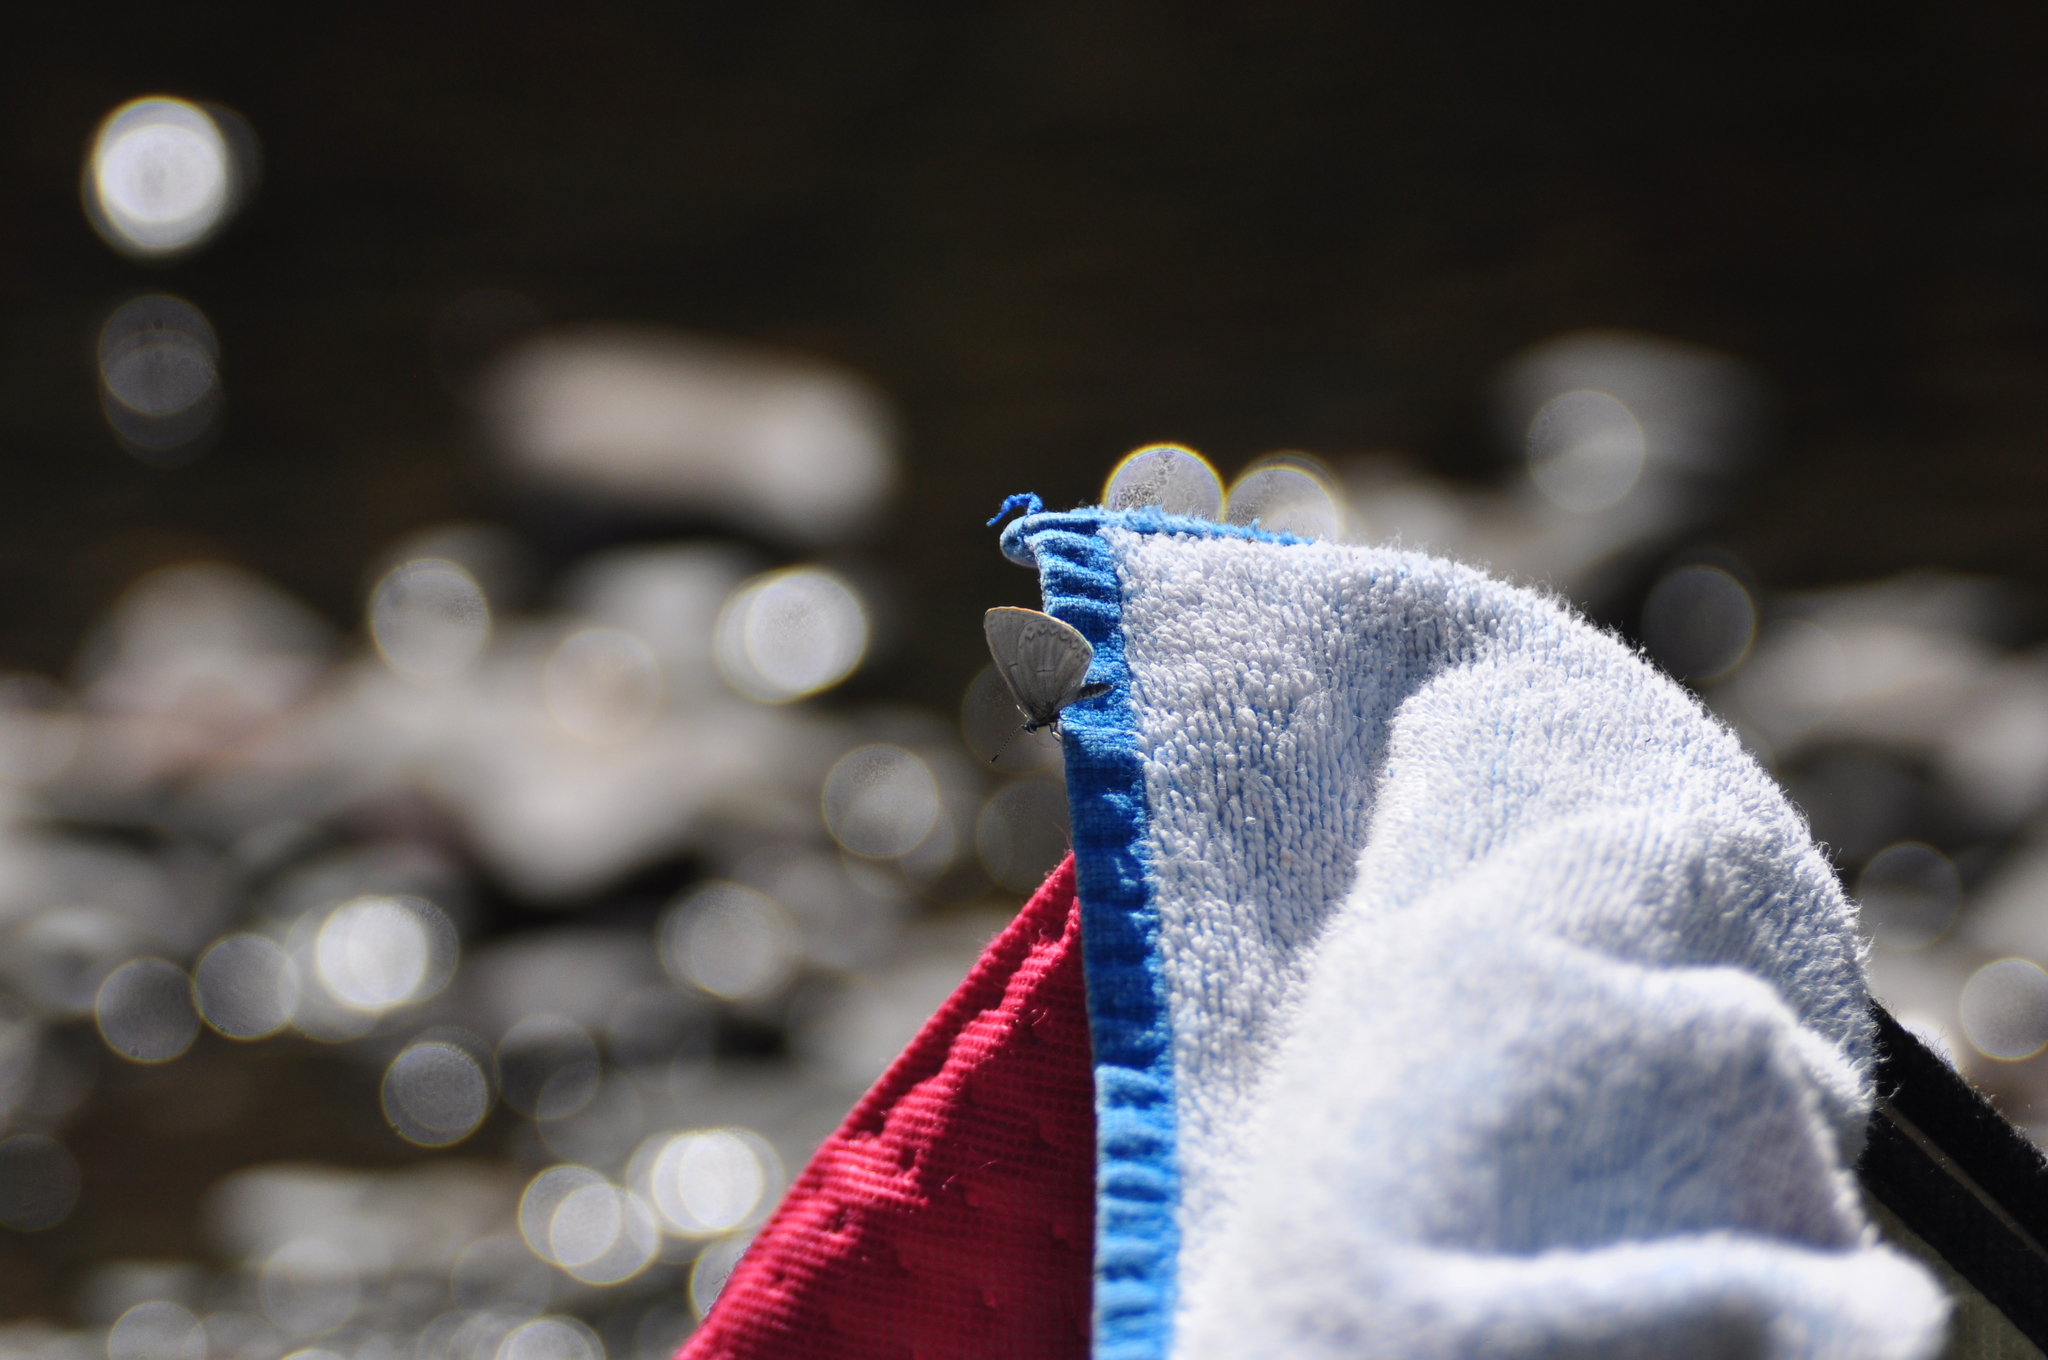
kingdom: Animalia
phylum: Arthropoda
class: Insecta
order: Lepidoptera
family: Lycaenidae
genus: Celastrina
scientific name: Celastrina ladon
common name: Spring azure
